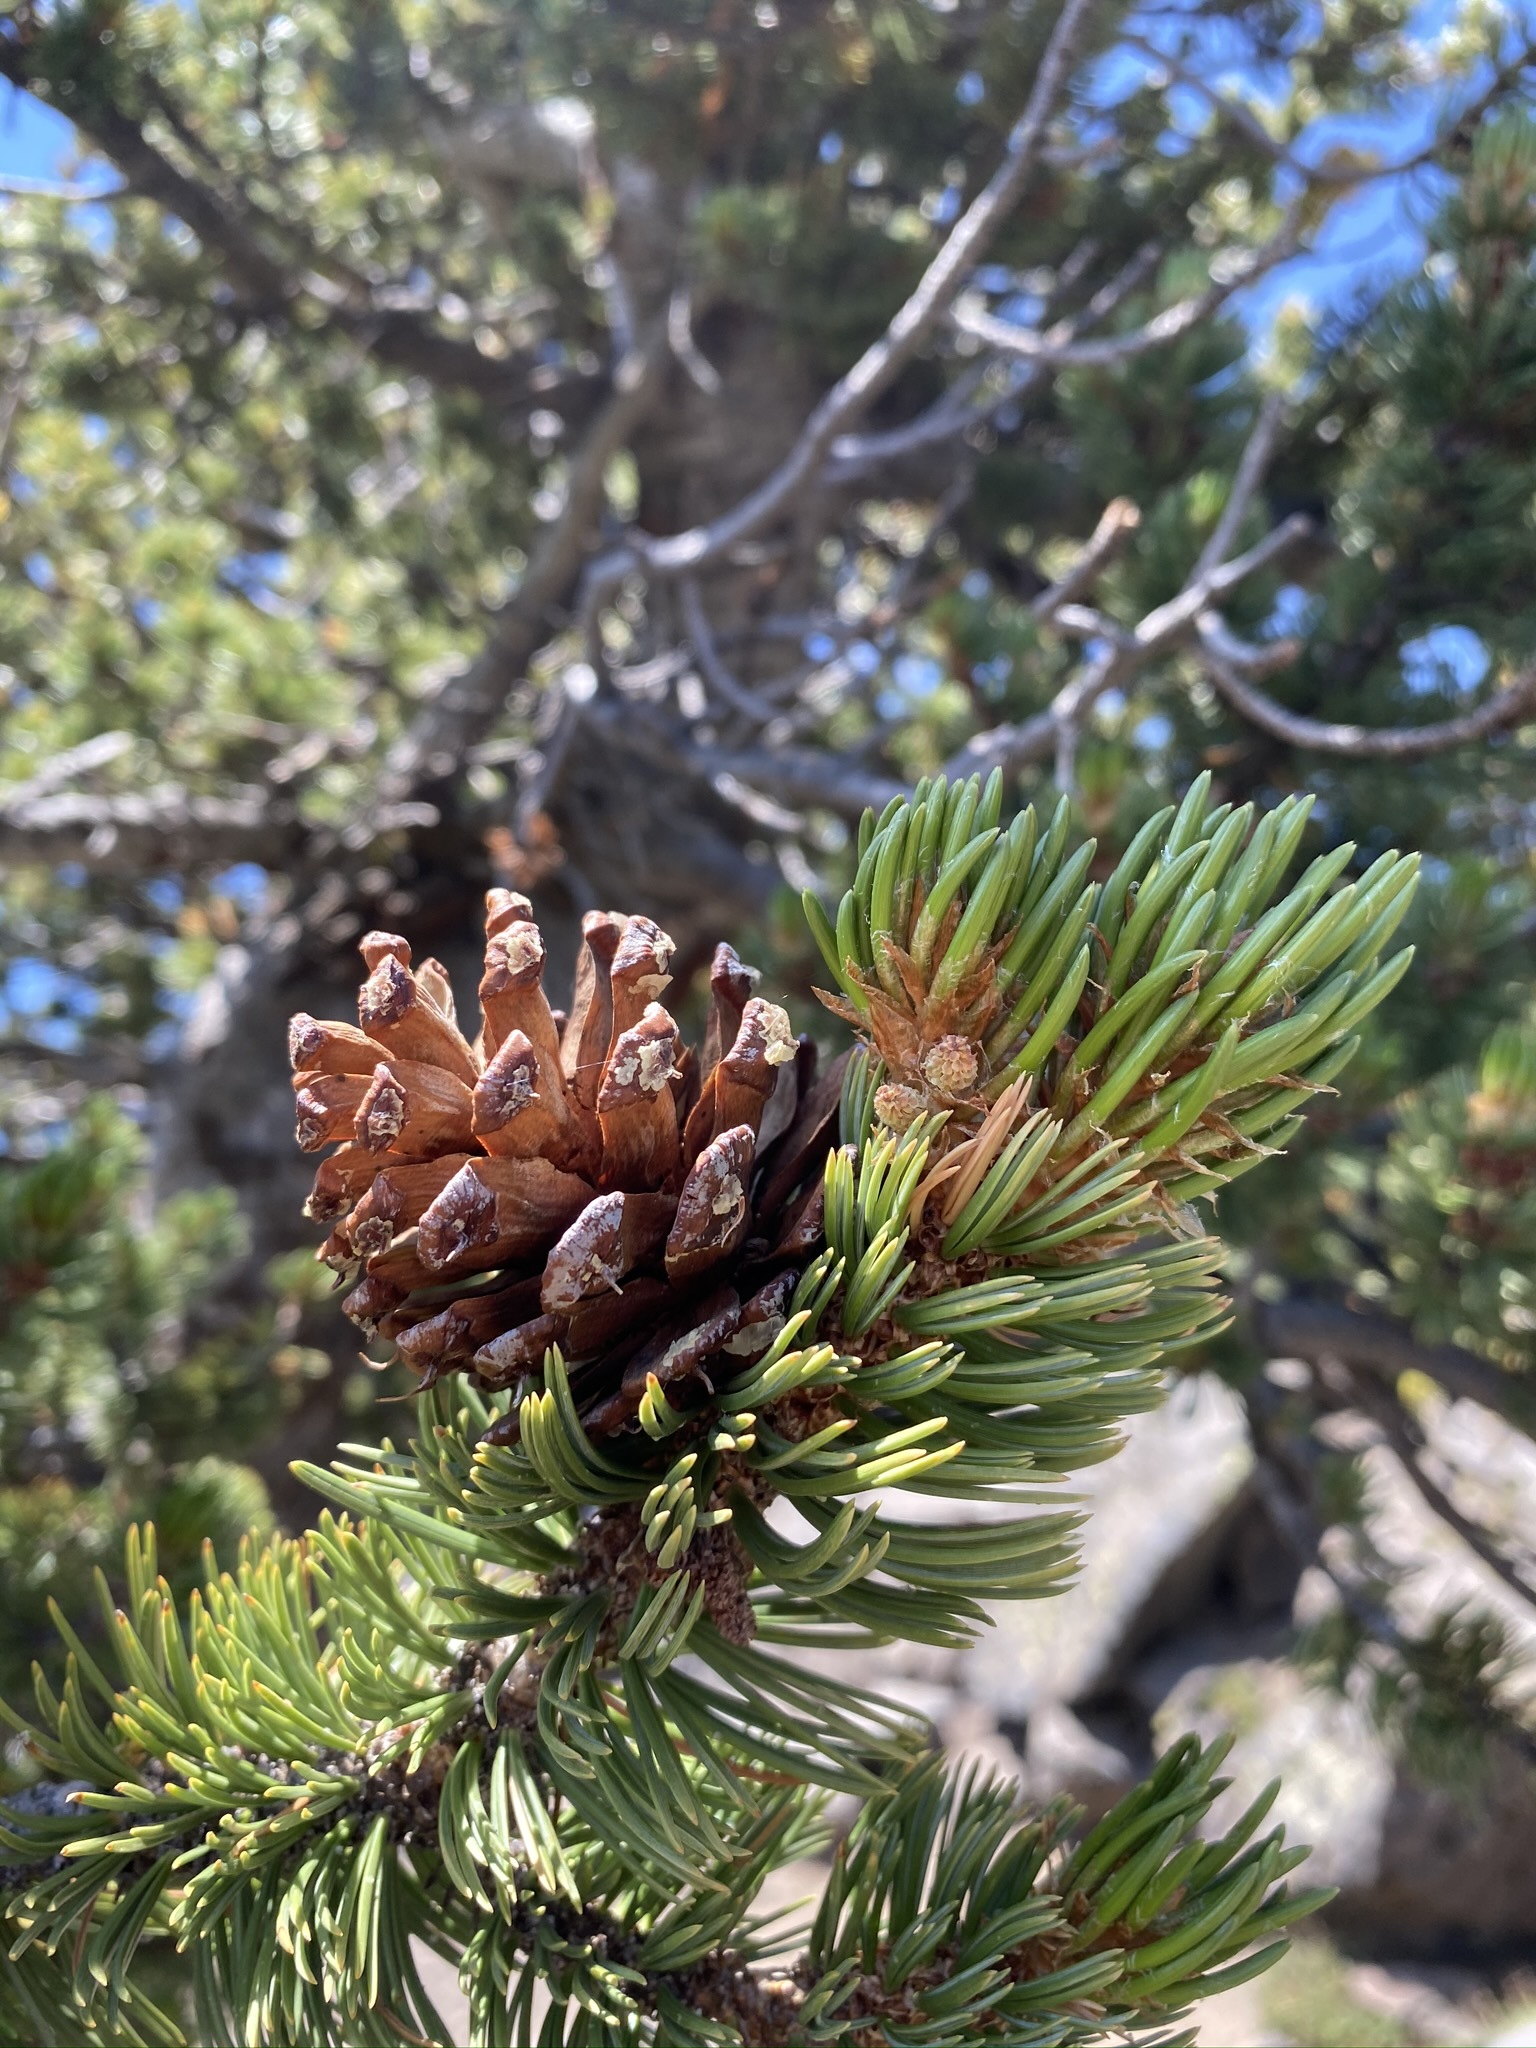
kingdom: Plantae
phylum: Tracheophyta
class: Pinopsida
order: Pinales
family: Pinaceae
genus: Pinus
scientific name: Pinus aristata
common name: Colorado bristlecone pine
